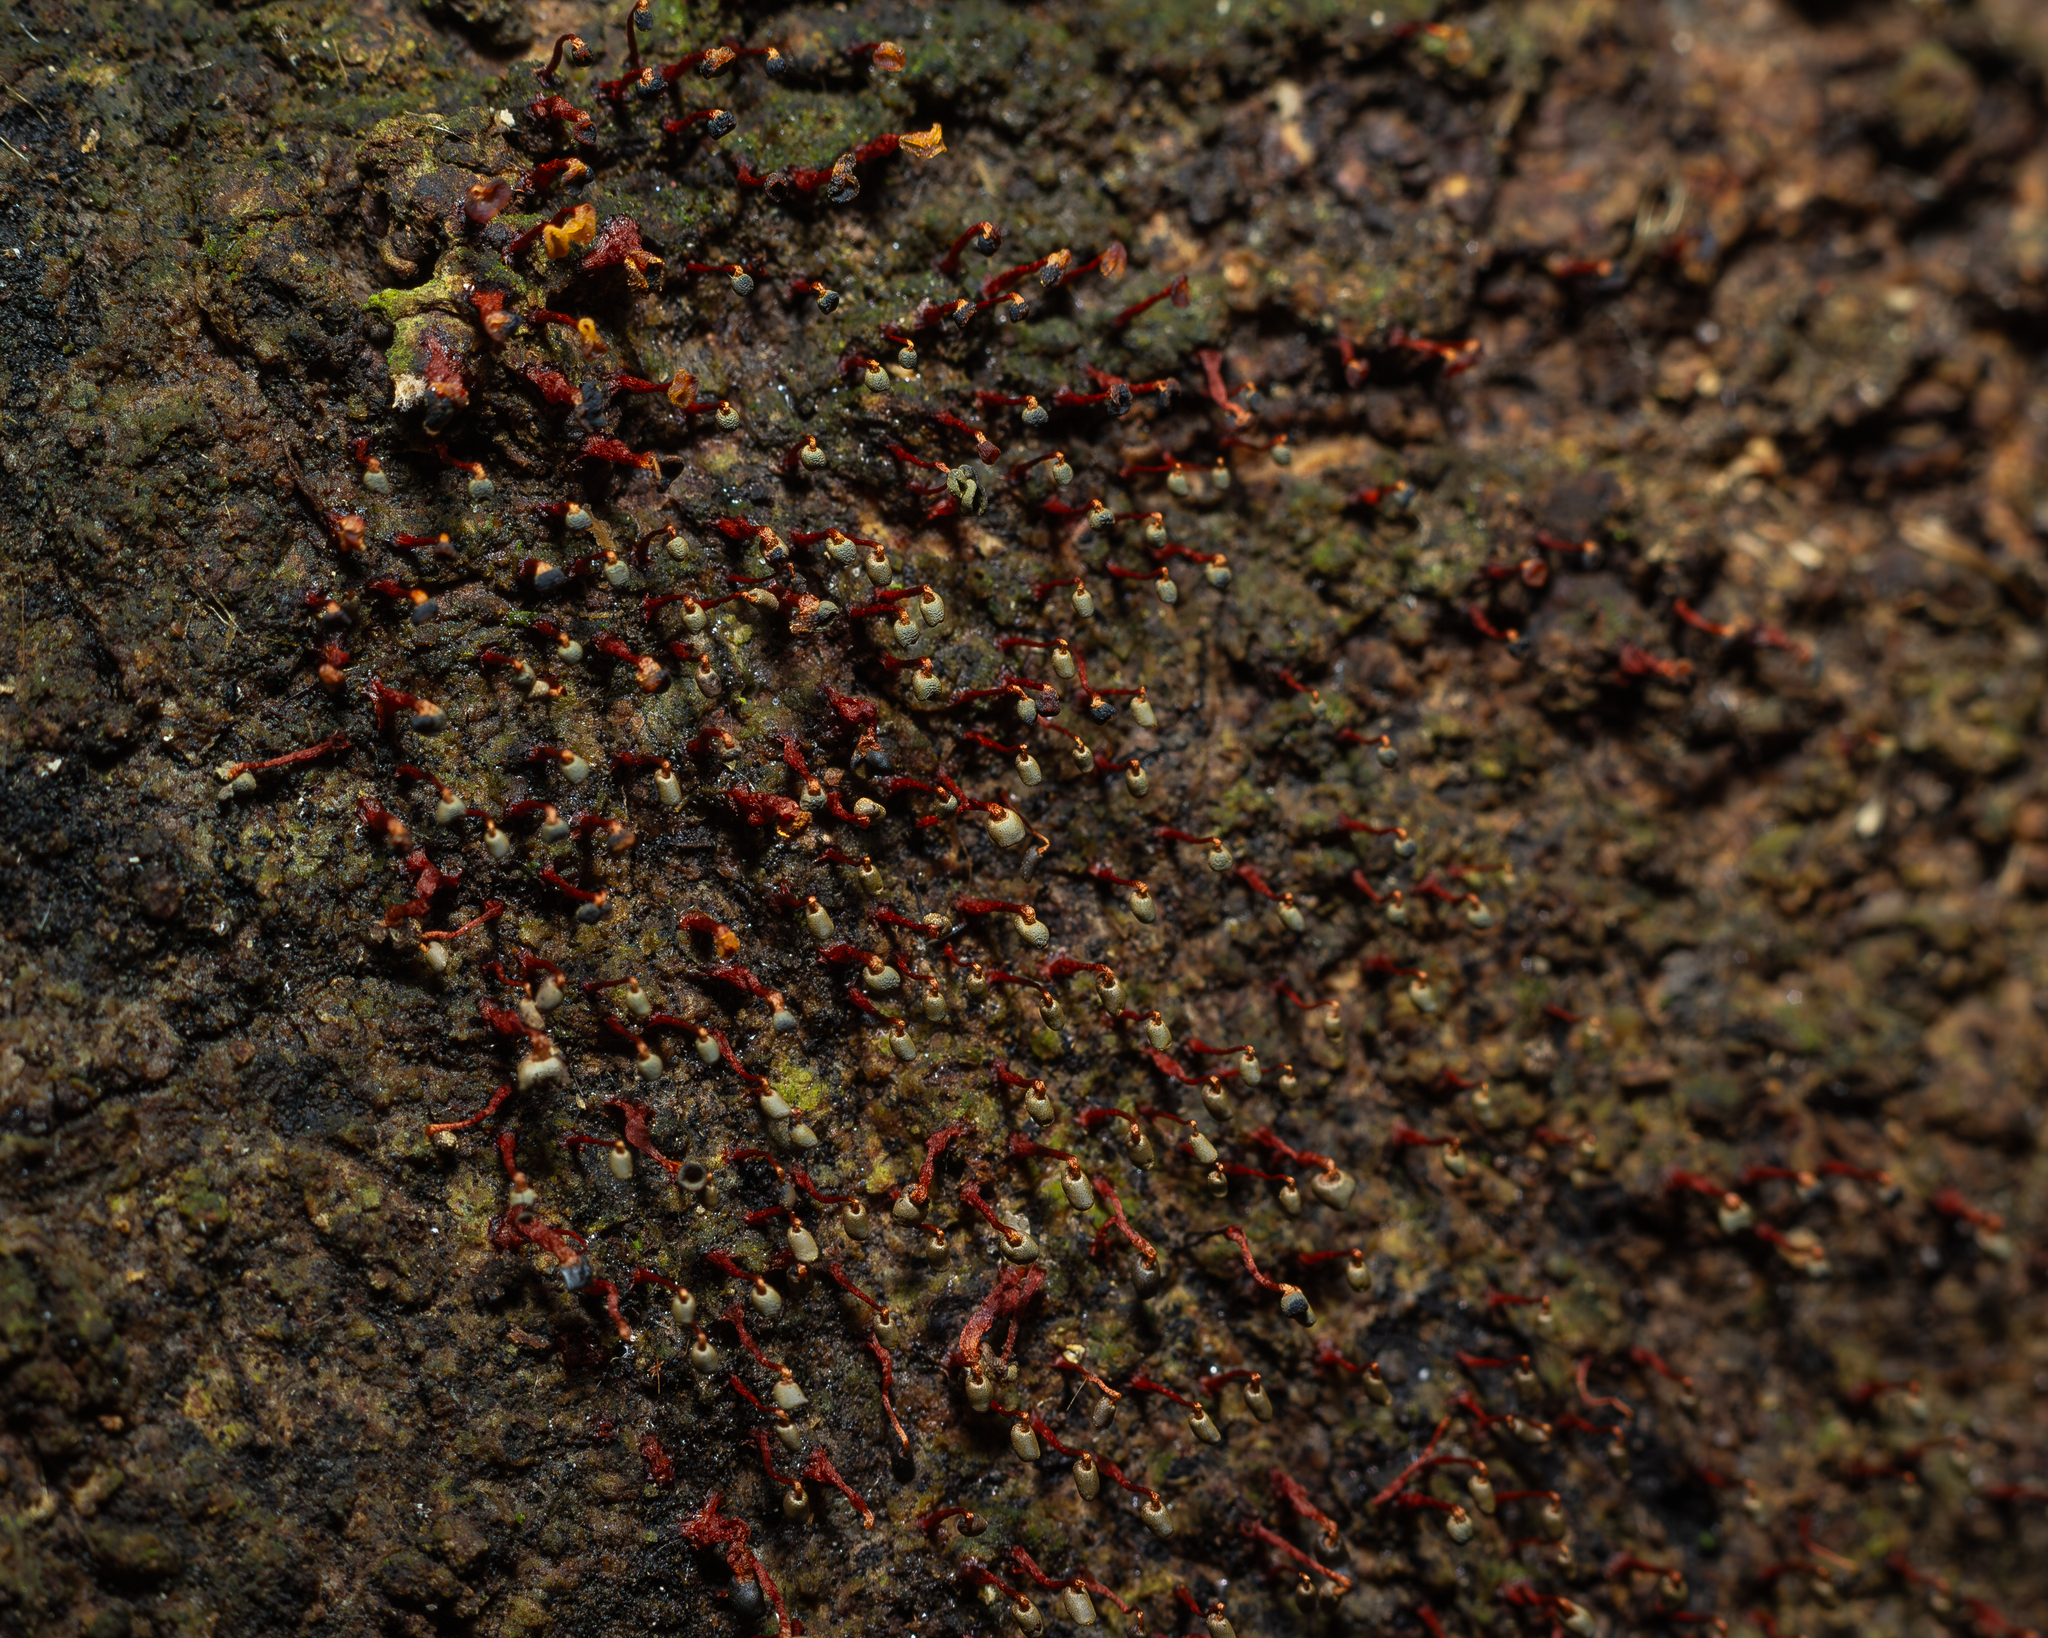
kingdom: Protozoa
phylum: Mycetozoa
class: Myxomycetes
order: Physarales
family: Physaraceae
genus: Physarella
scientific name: Physarella oblonga
